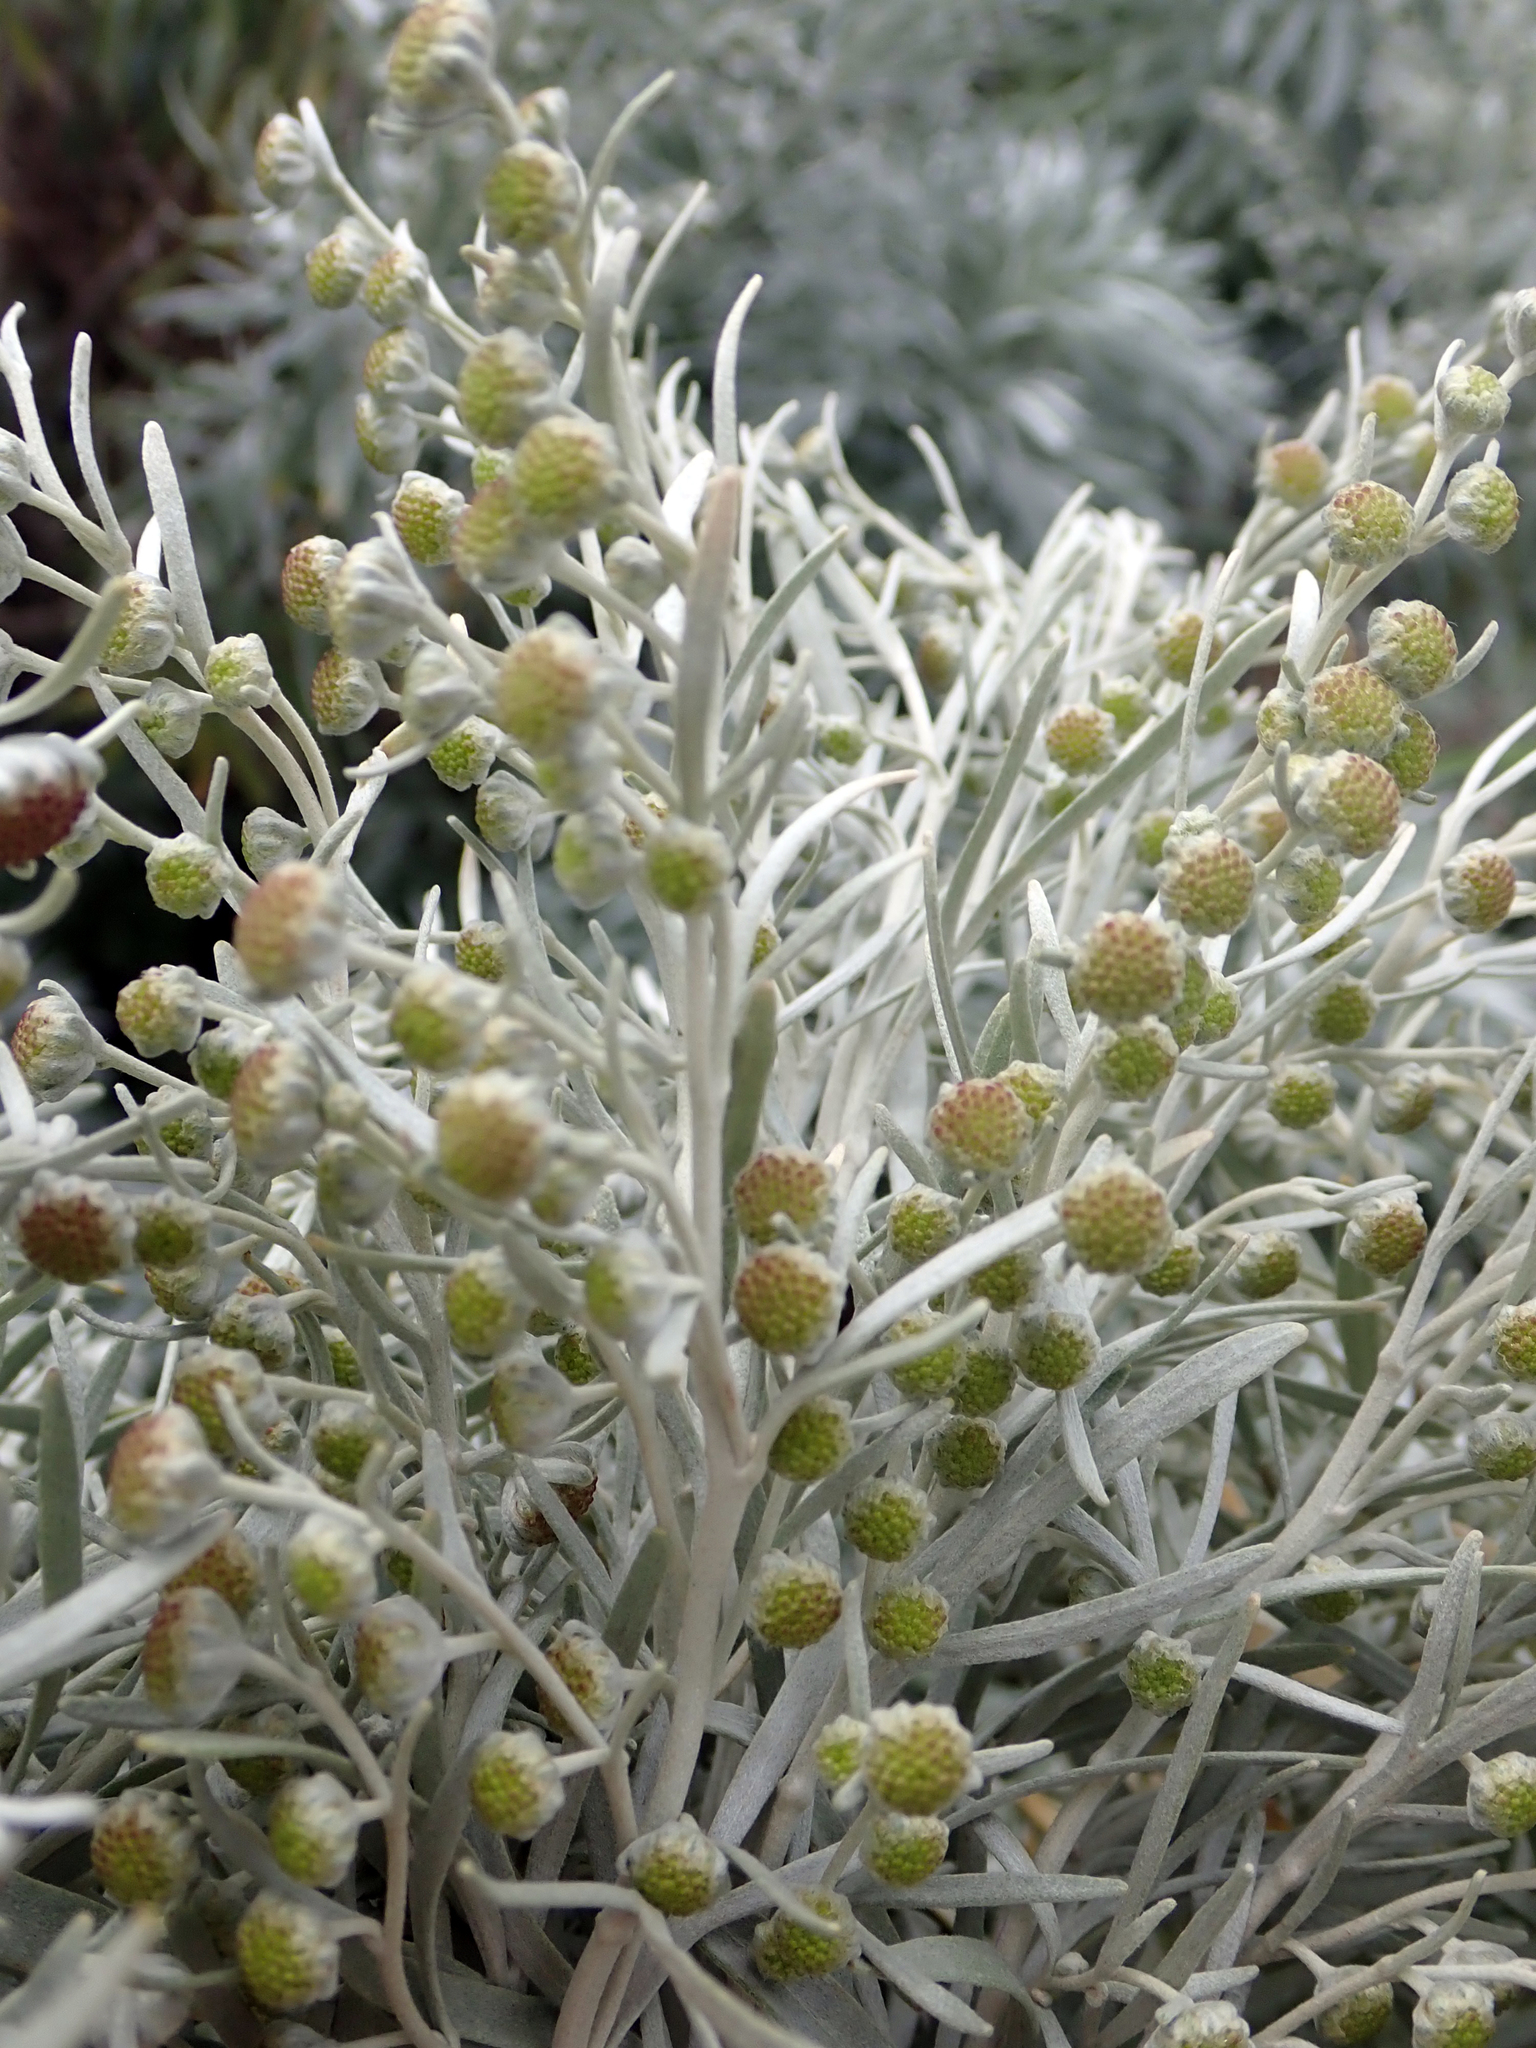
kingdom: Plantae
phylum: Tracheophyta
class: Magnoliopsida
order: Asterales
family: Asteraceae
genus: Artemisia
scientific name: Artemisia arborescens
